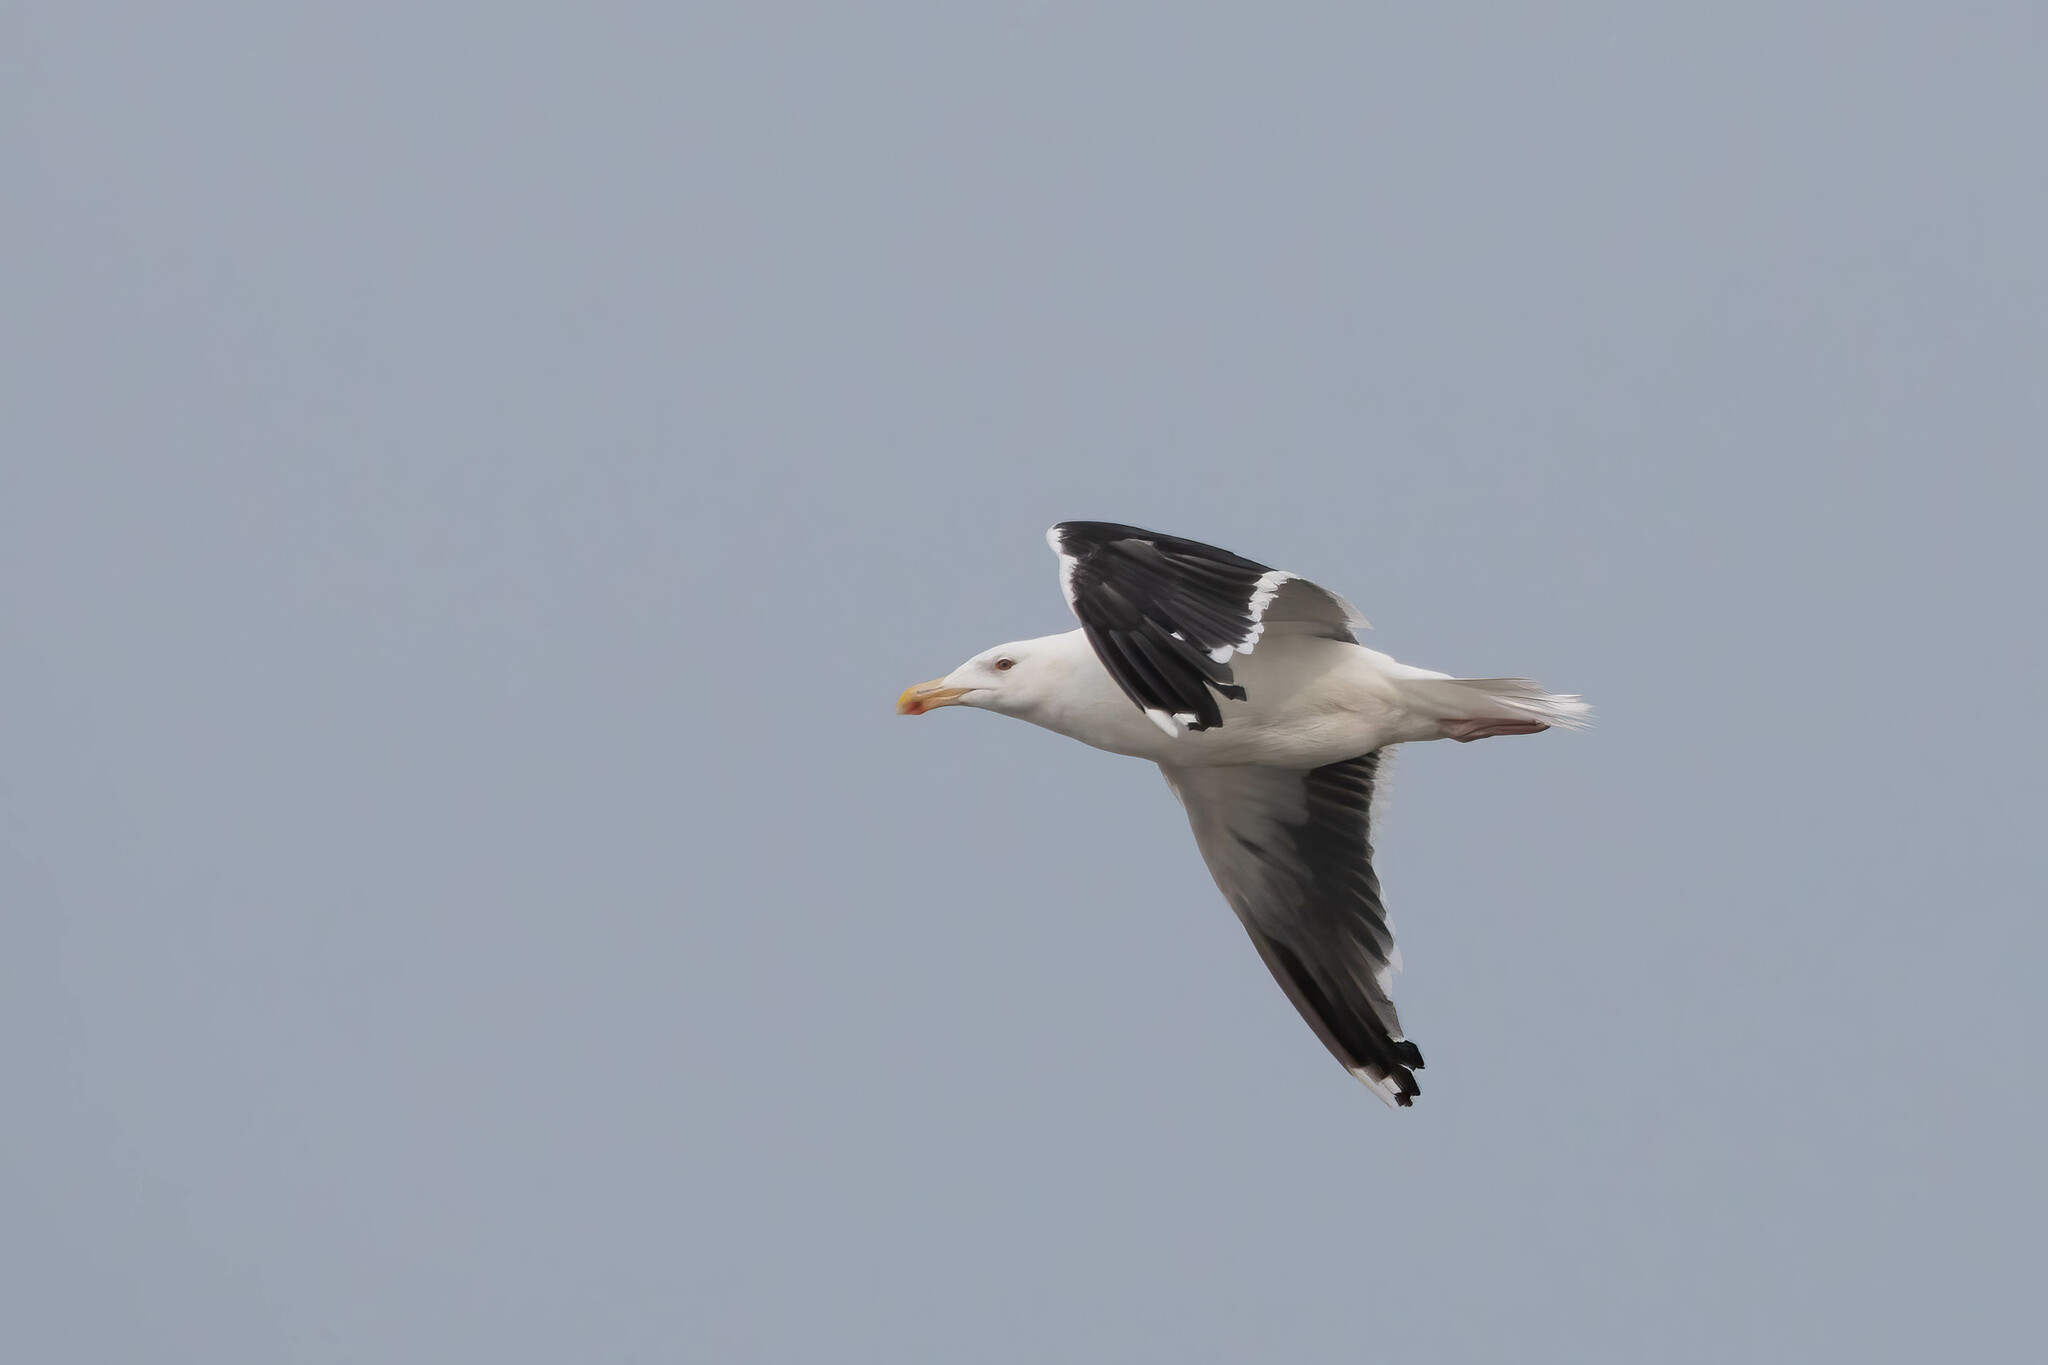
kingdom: Animalia
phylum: Chordata
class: Aves
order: Charadriiformes
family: Laridae
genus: Larus
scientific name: Larus marinus
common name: Great black-backed gull
